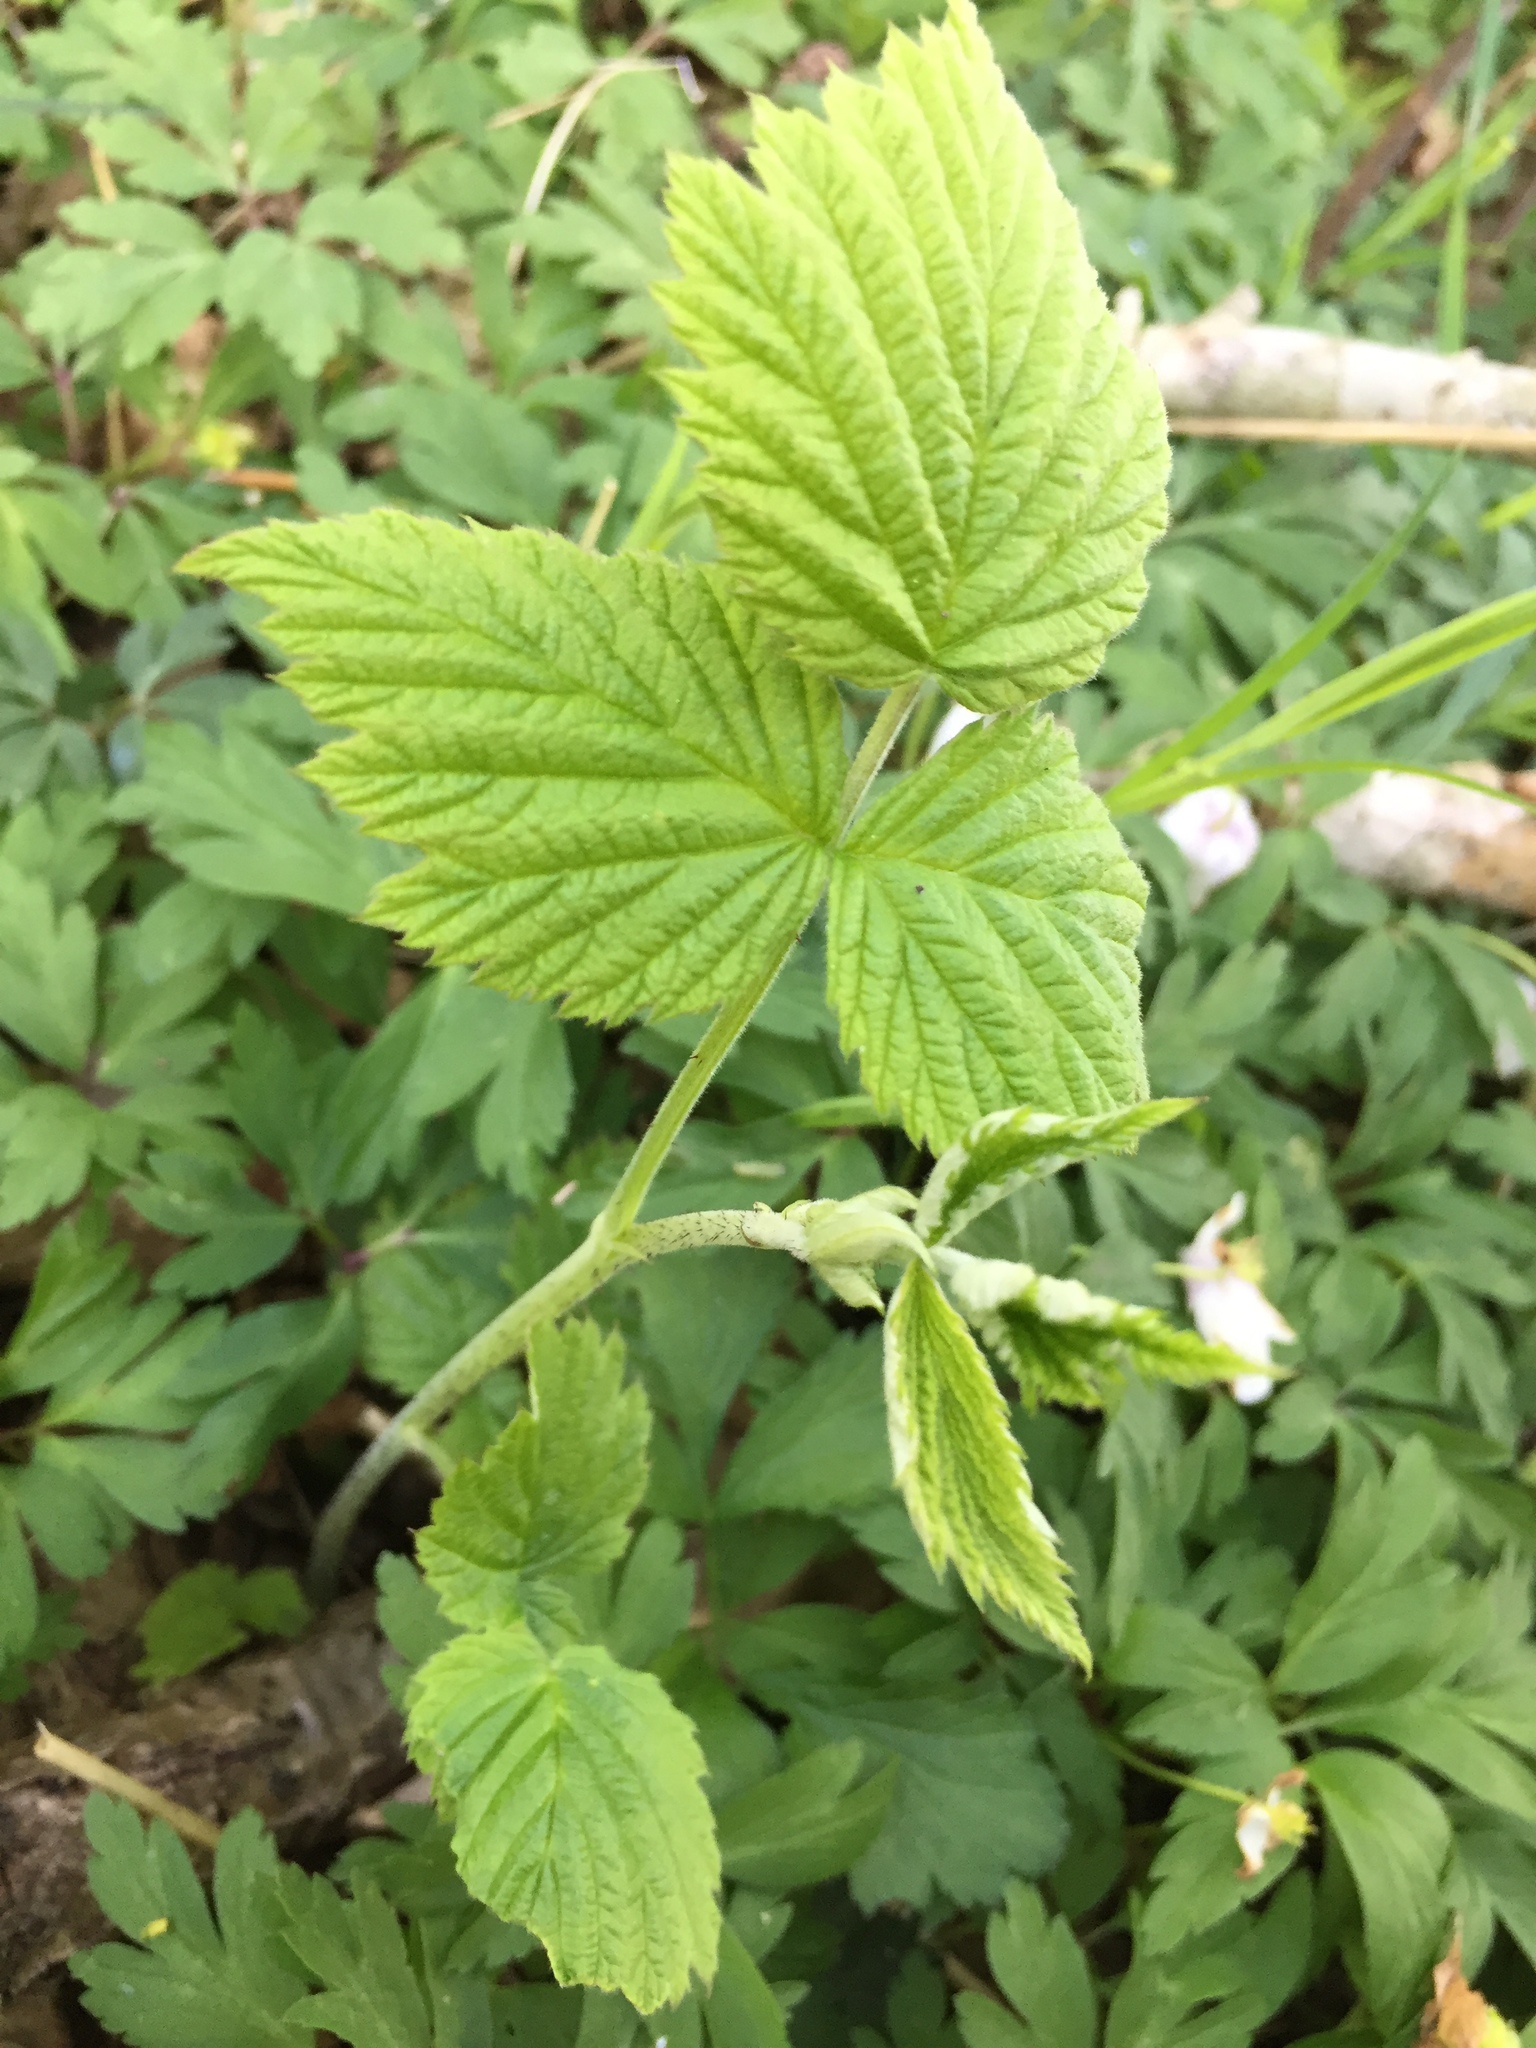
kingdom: Plantae
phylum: Tracheophyta
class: Magnoliopsida
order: Rosales
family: Rosaceae
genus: Rubus
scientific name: Rubus idaeus
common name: Raspberry
